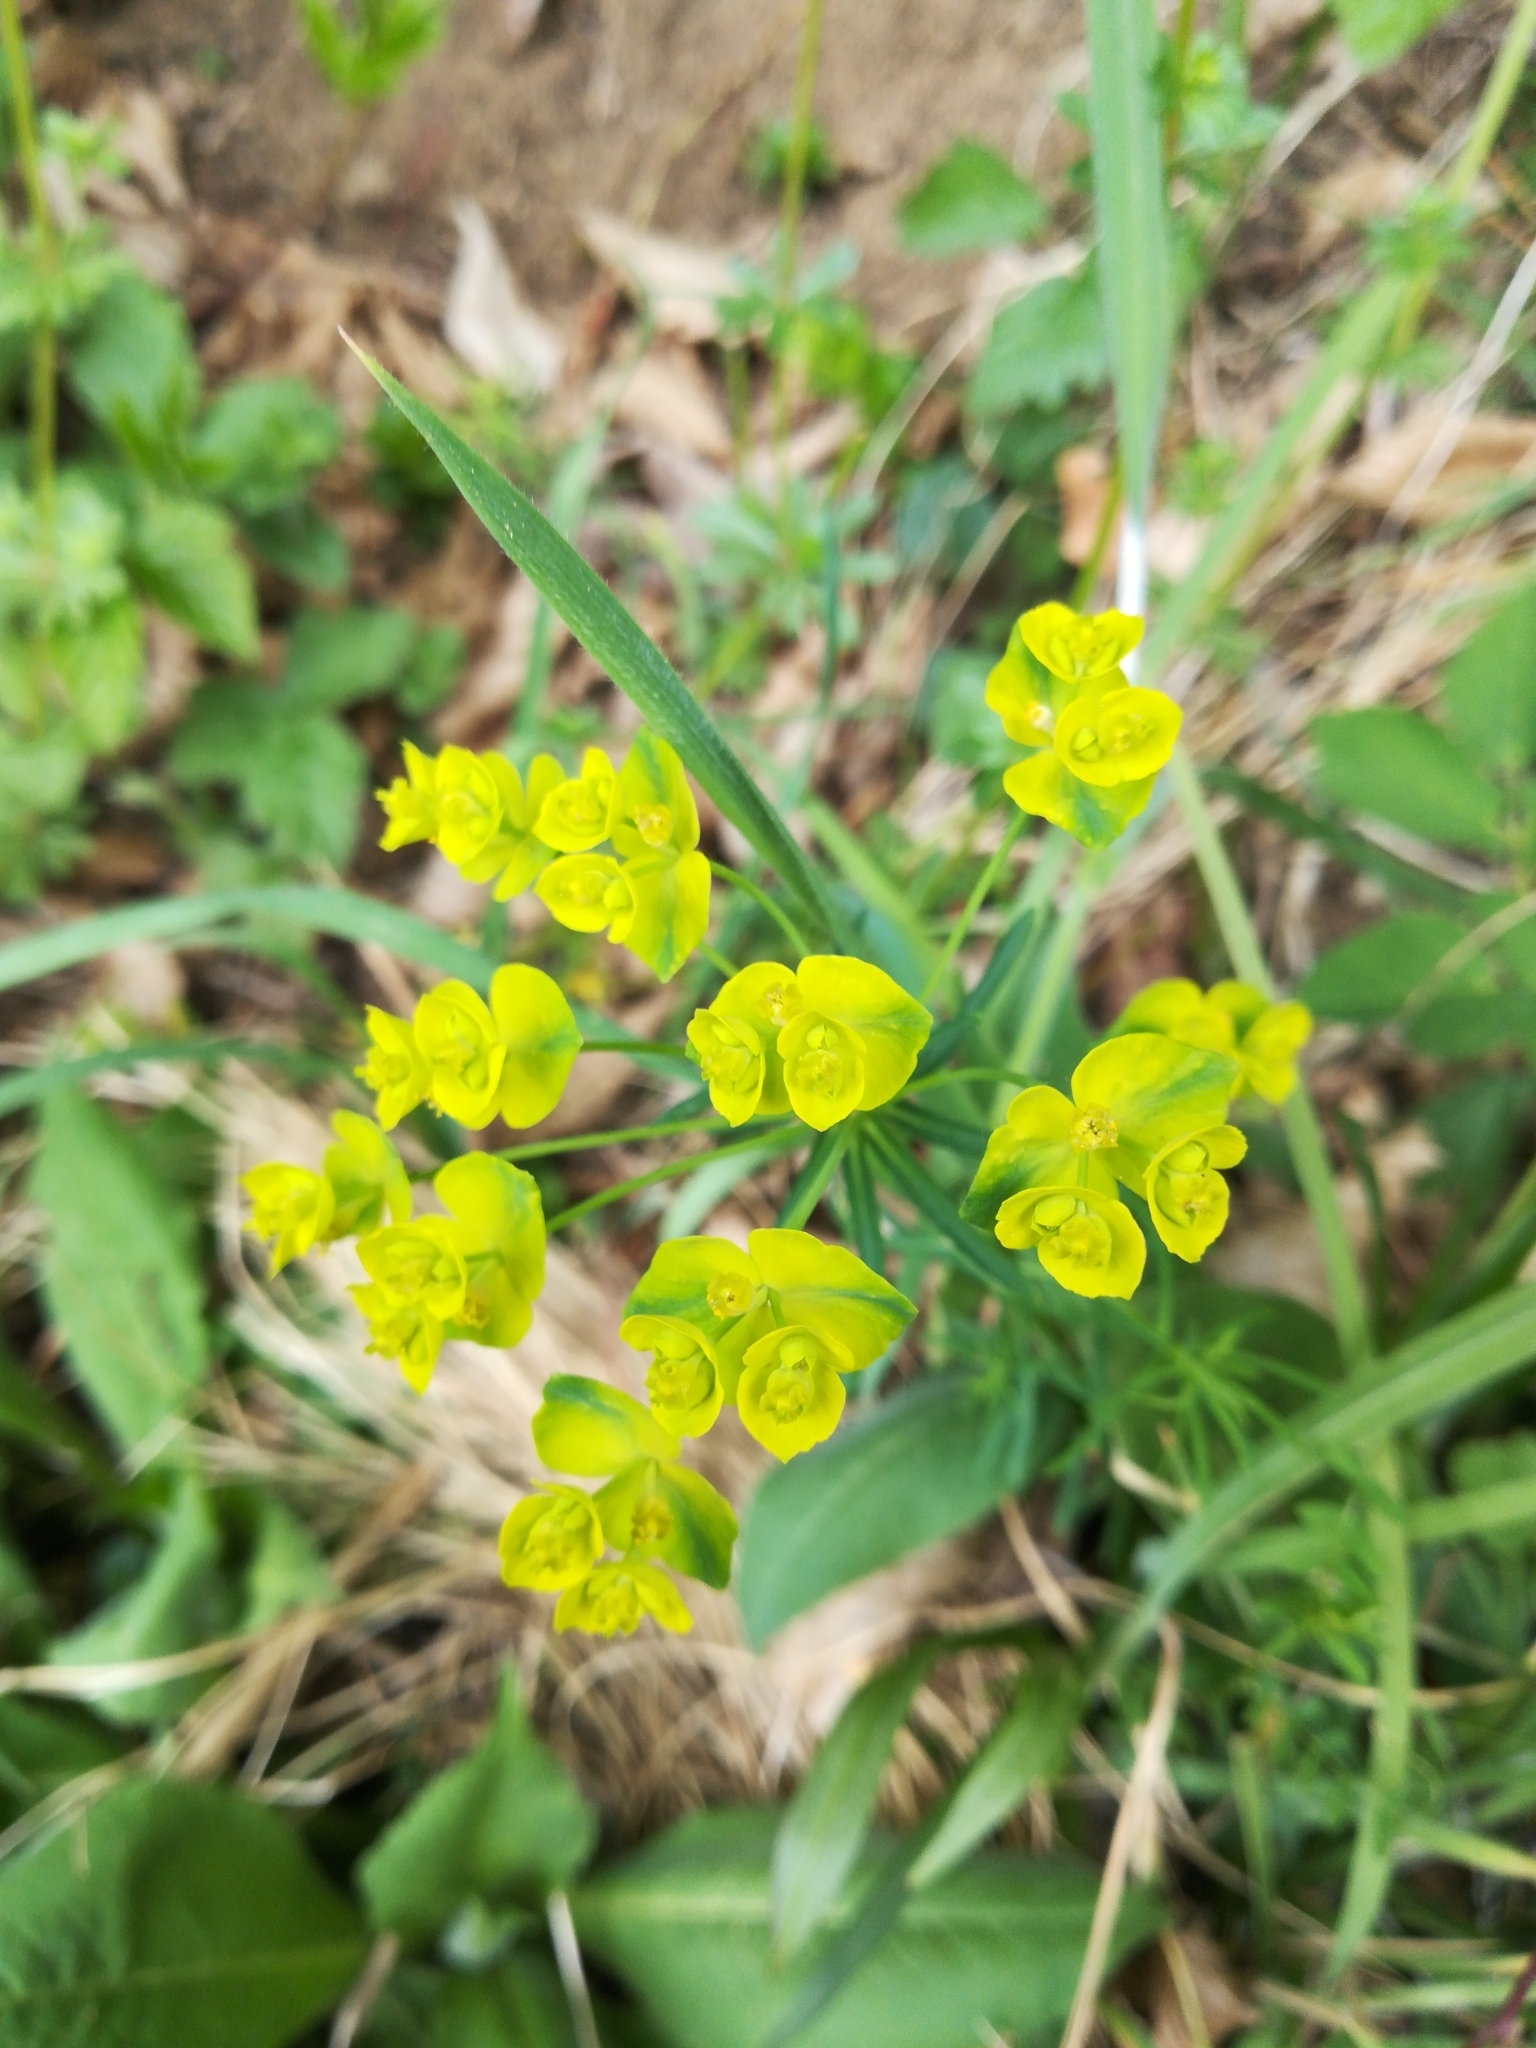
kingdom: Plantae
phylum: Tracheophyta
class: Magnoliopsida
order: Malpighiales
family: Euphorbiaceae
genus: Euphorbia
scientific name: Euphorbia cyparissias
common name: Cypress spurge
